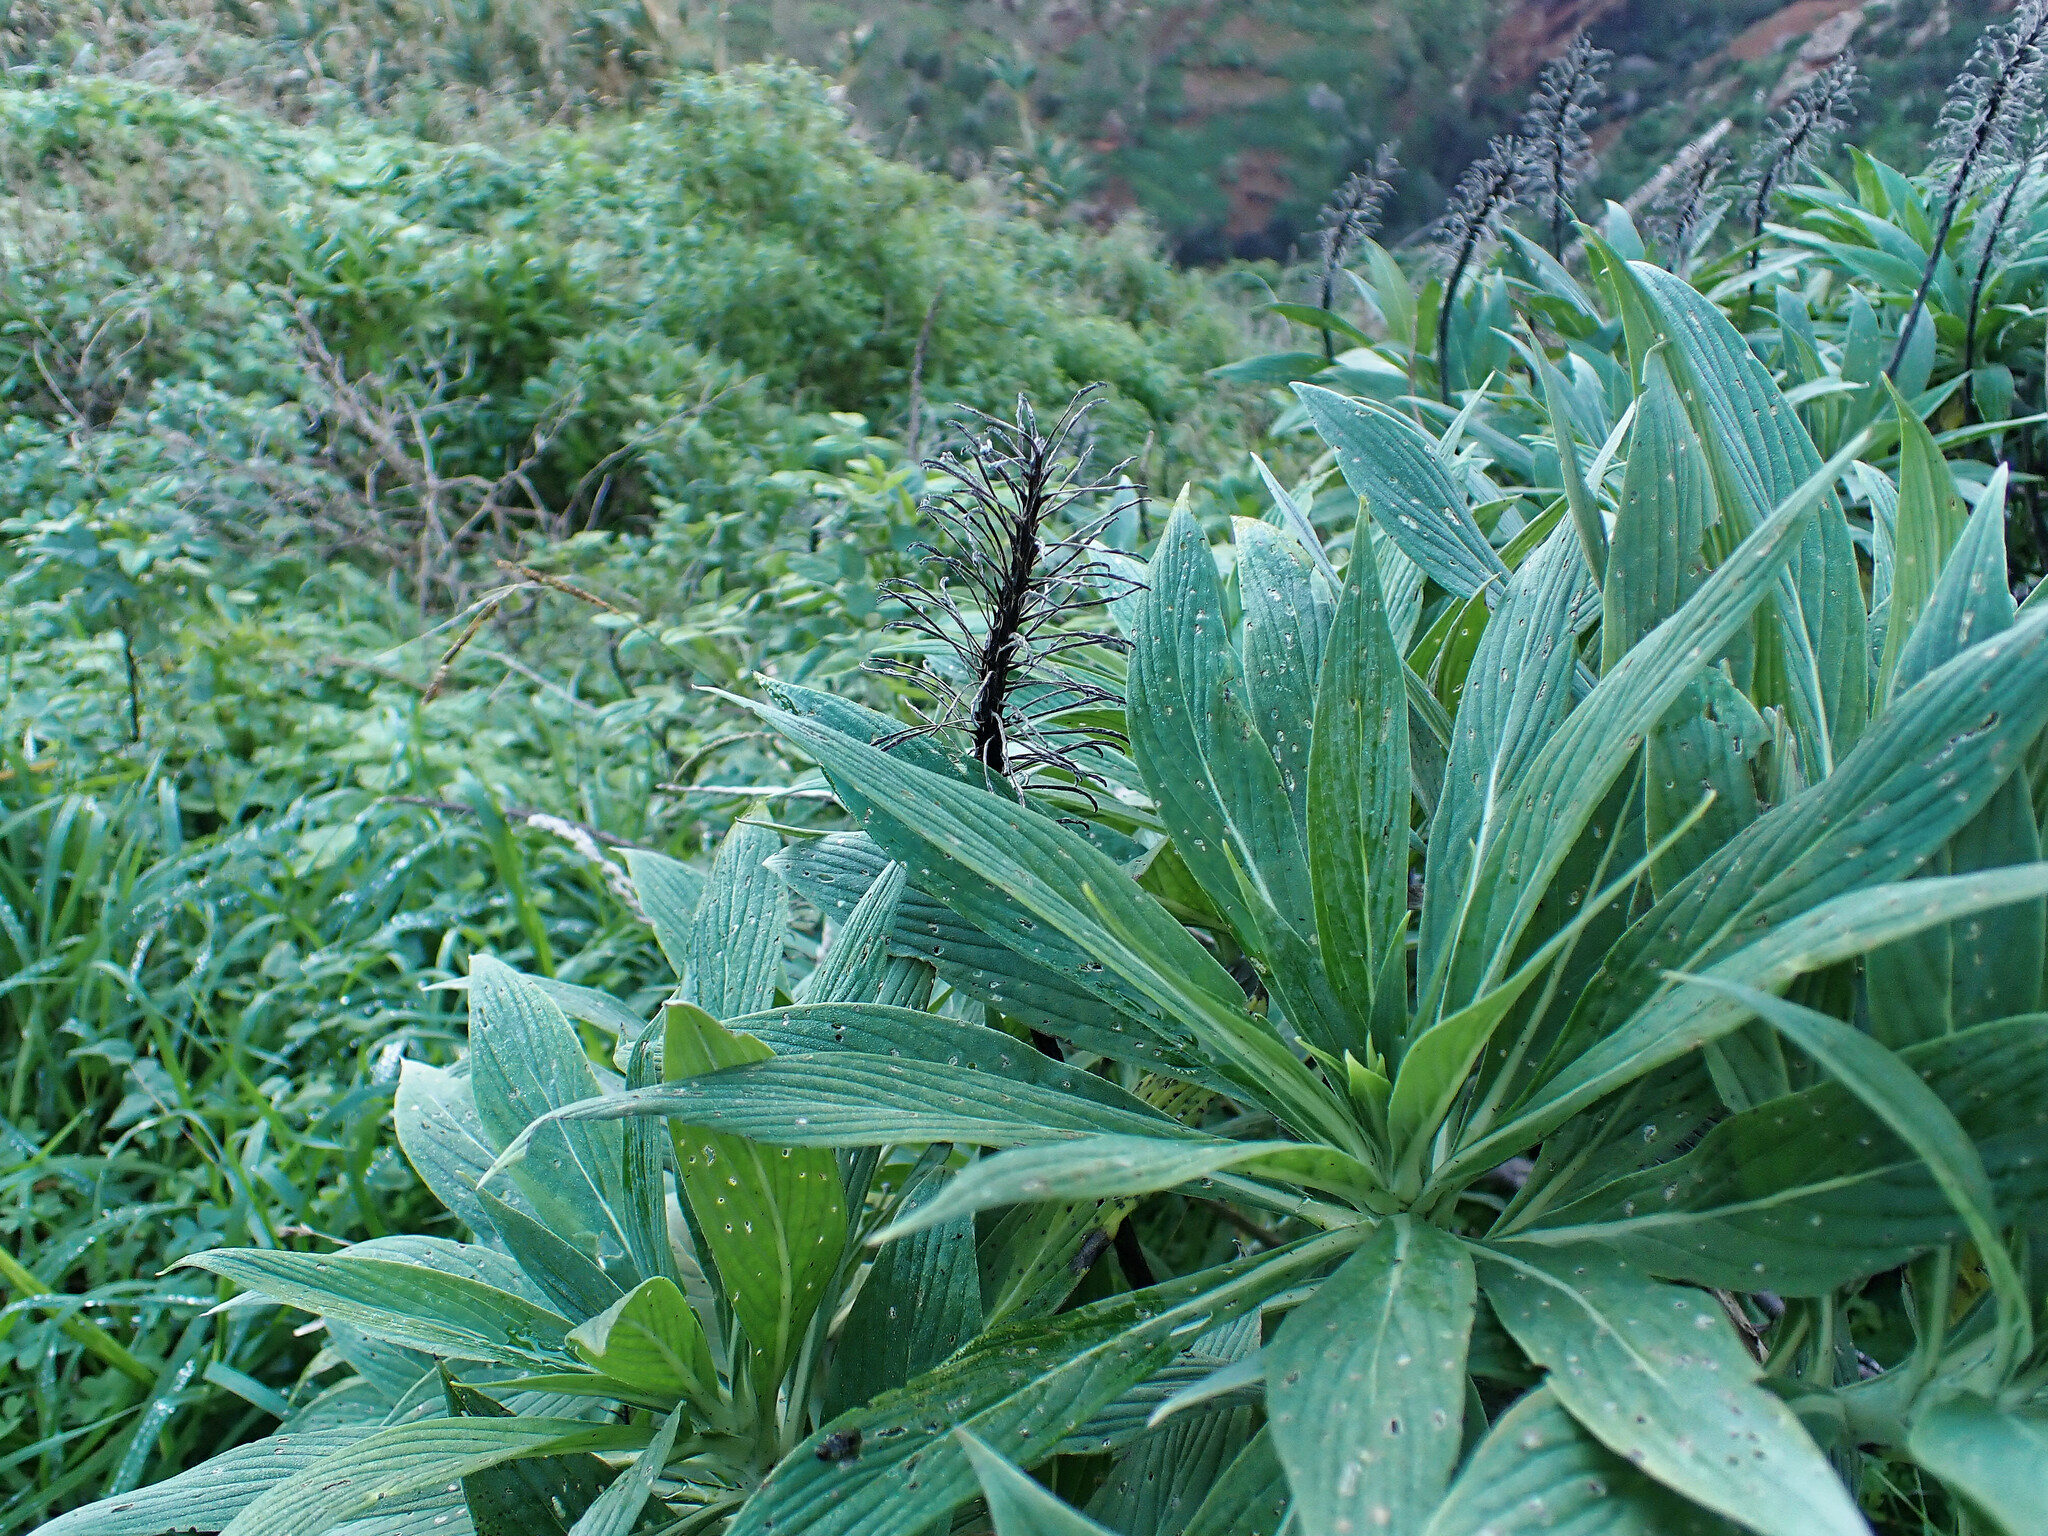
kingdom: Plantae
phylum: Tracheophyta
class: Magnoliopsida
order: Boraginales
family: Boraginaceae
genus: Echium
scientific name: Echium nervosum
